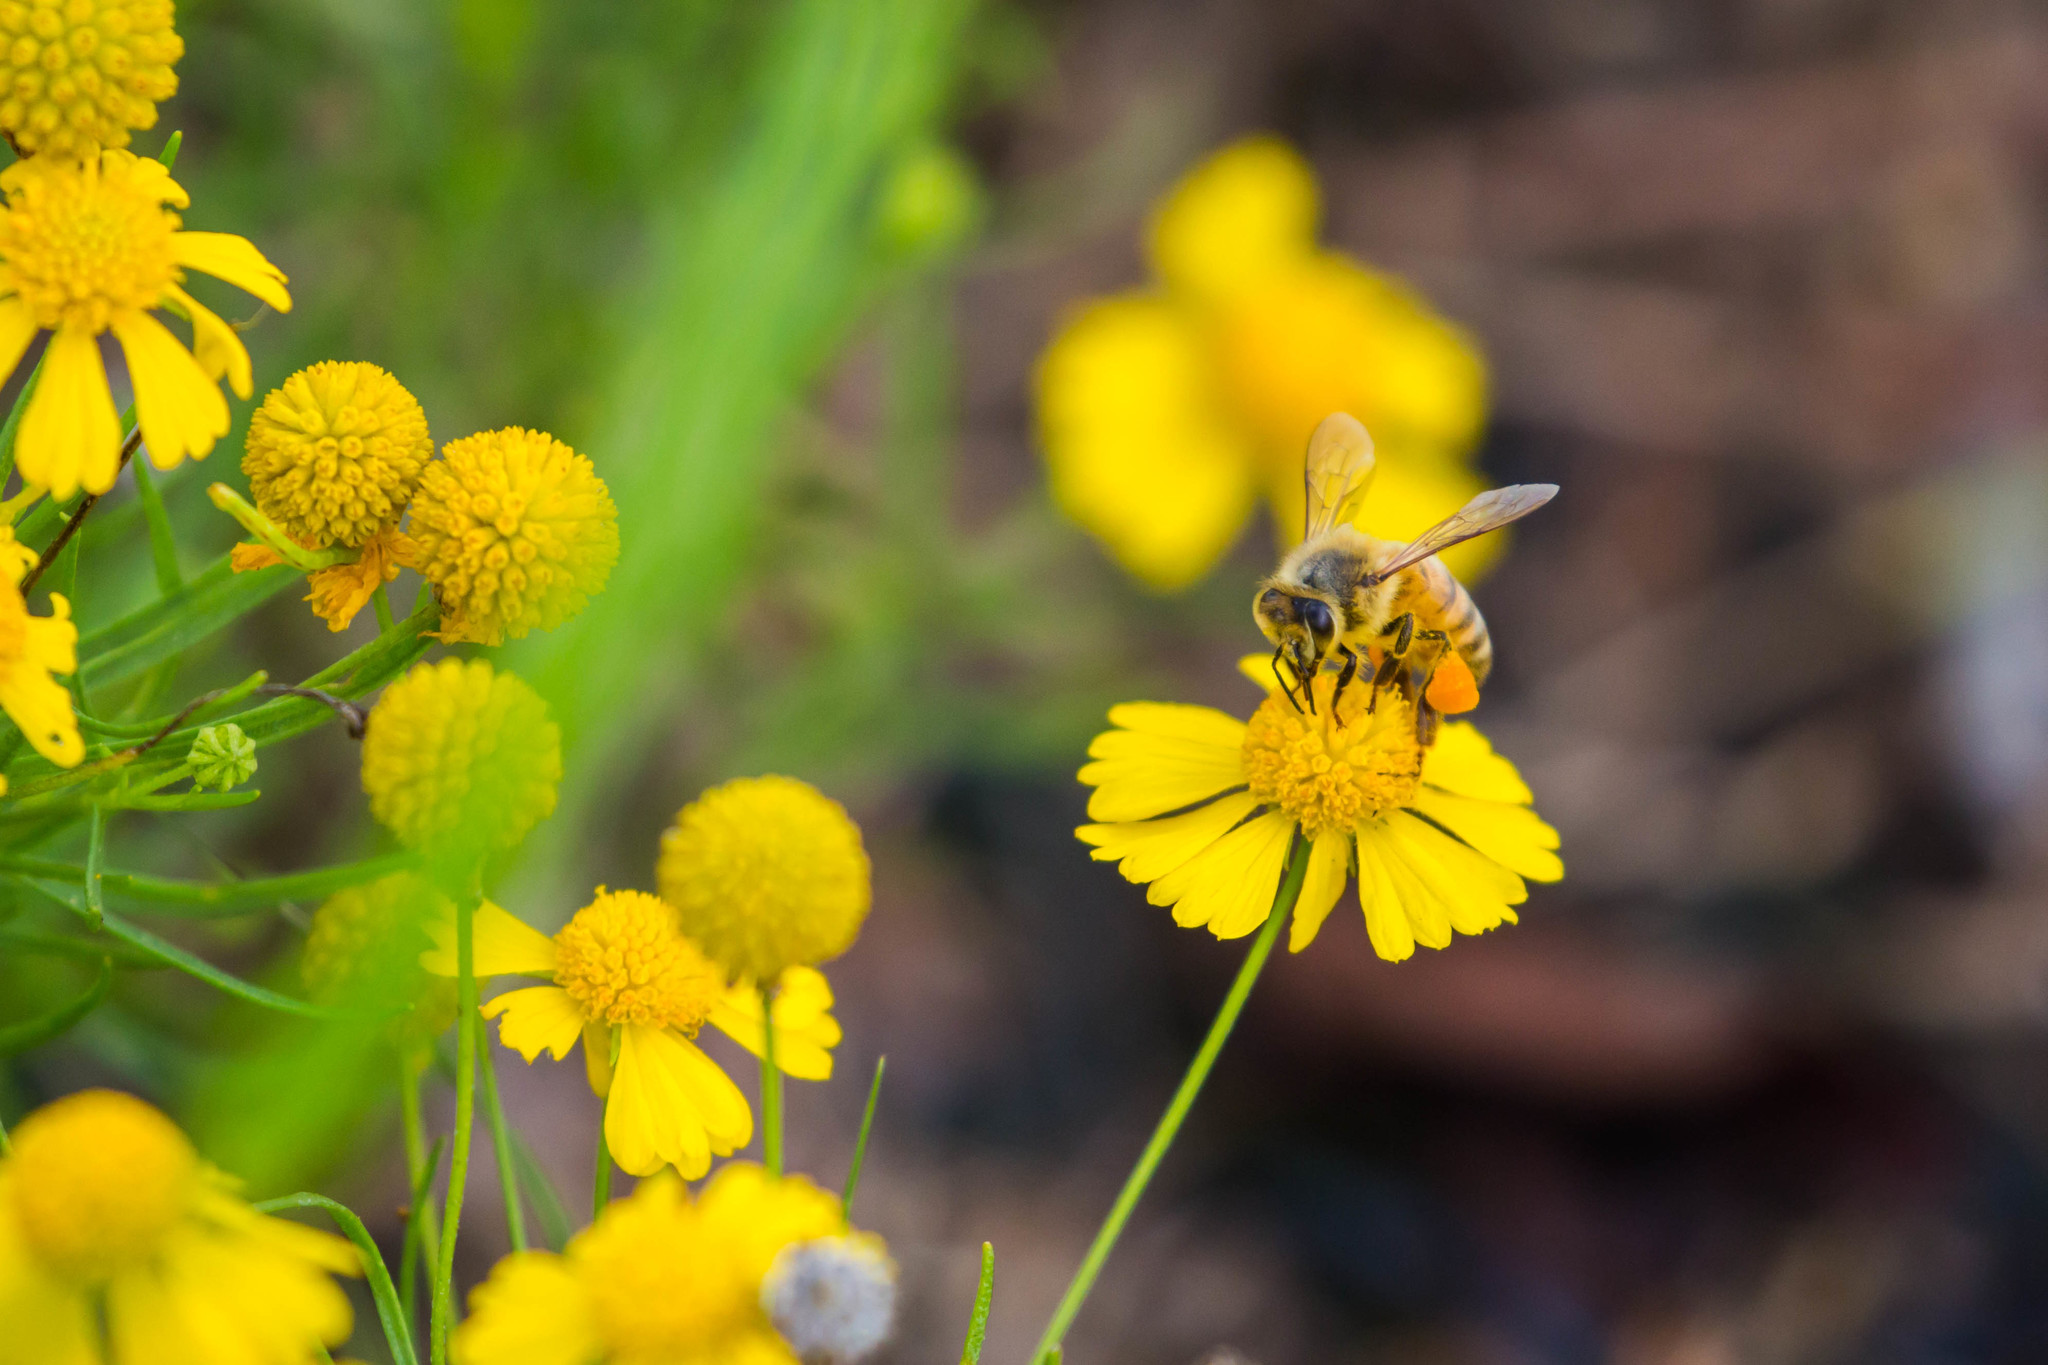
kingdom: Animalia
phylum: Arthropoda
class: Insecta
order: Hymenoptera
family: Apidae
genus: Apis
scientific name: Apis mellifera
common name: Honey bee
